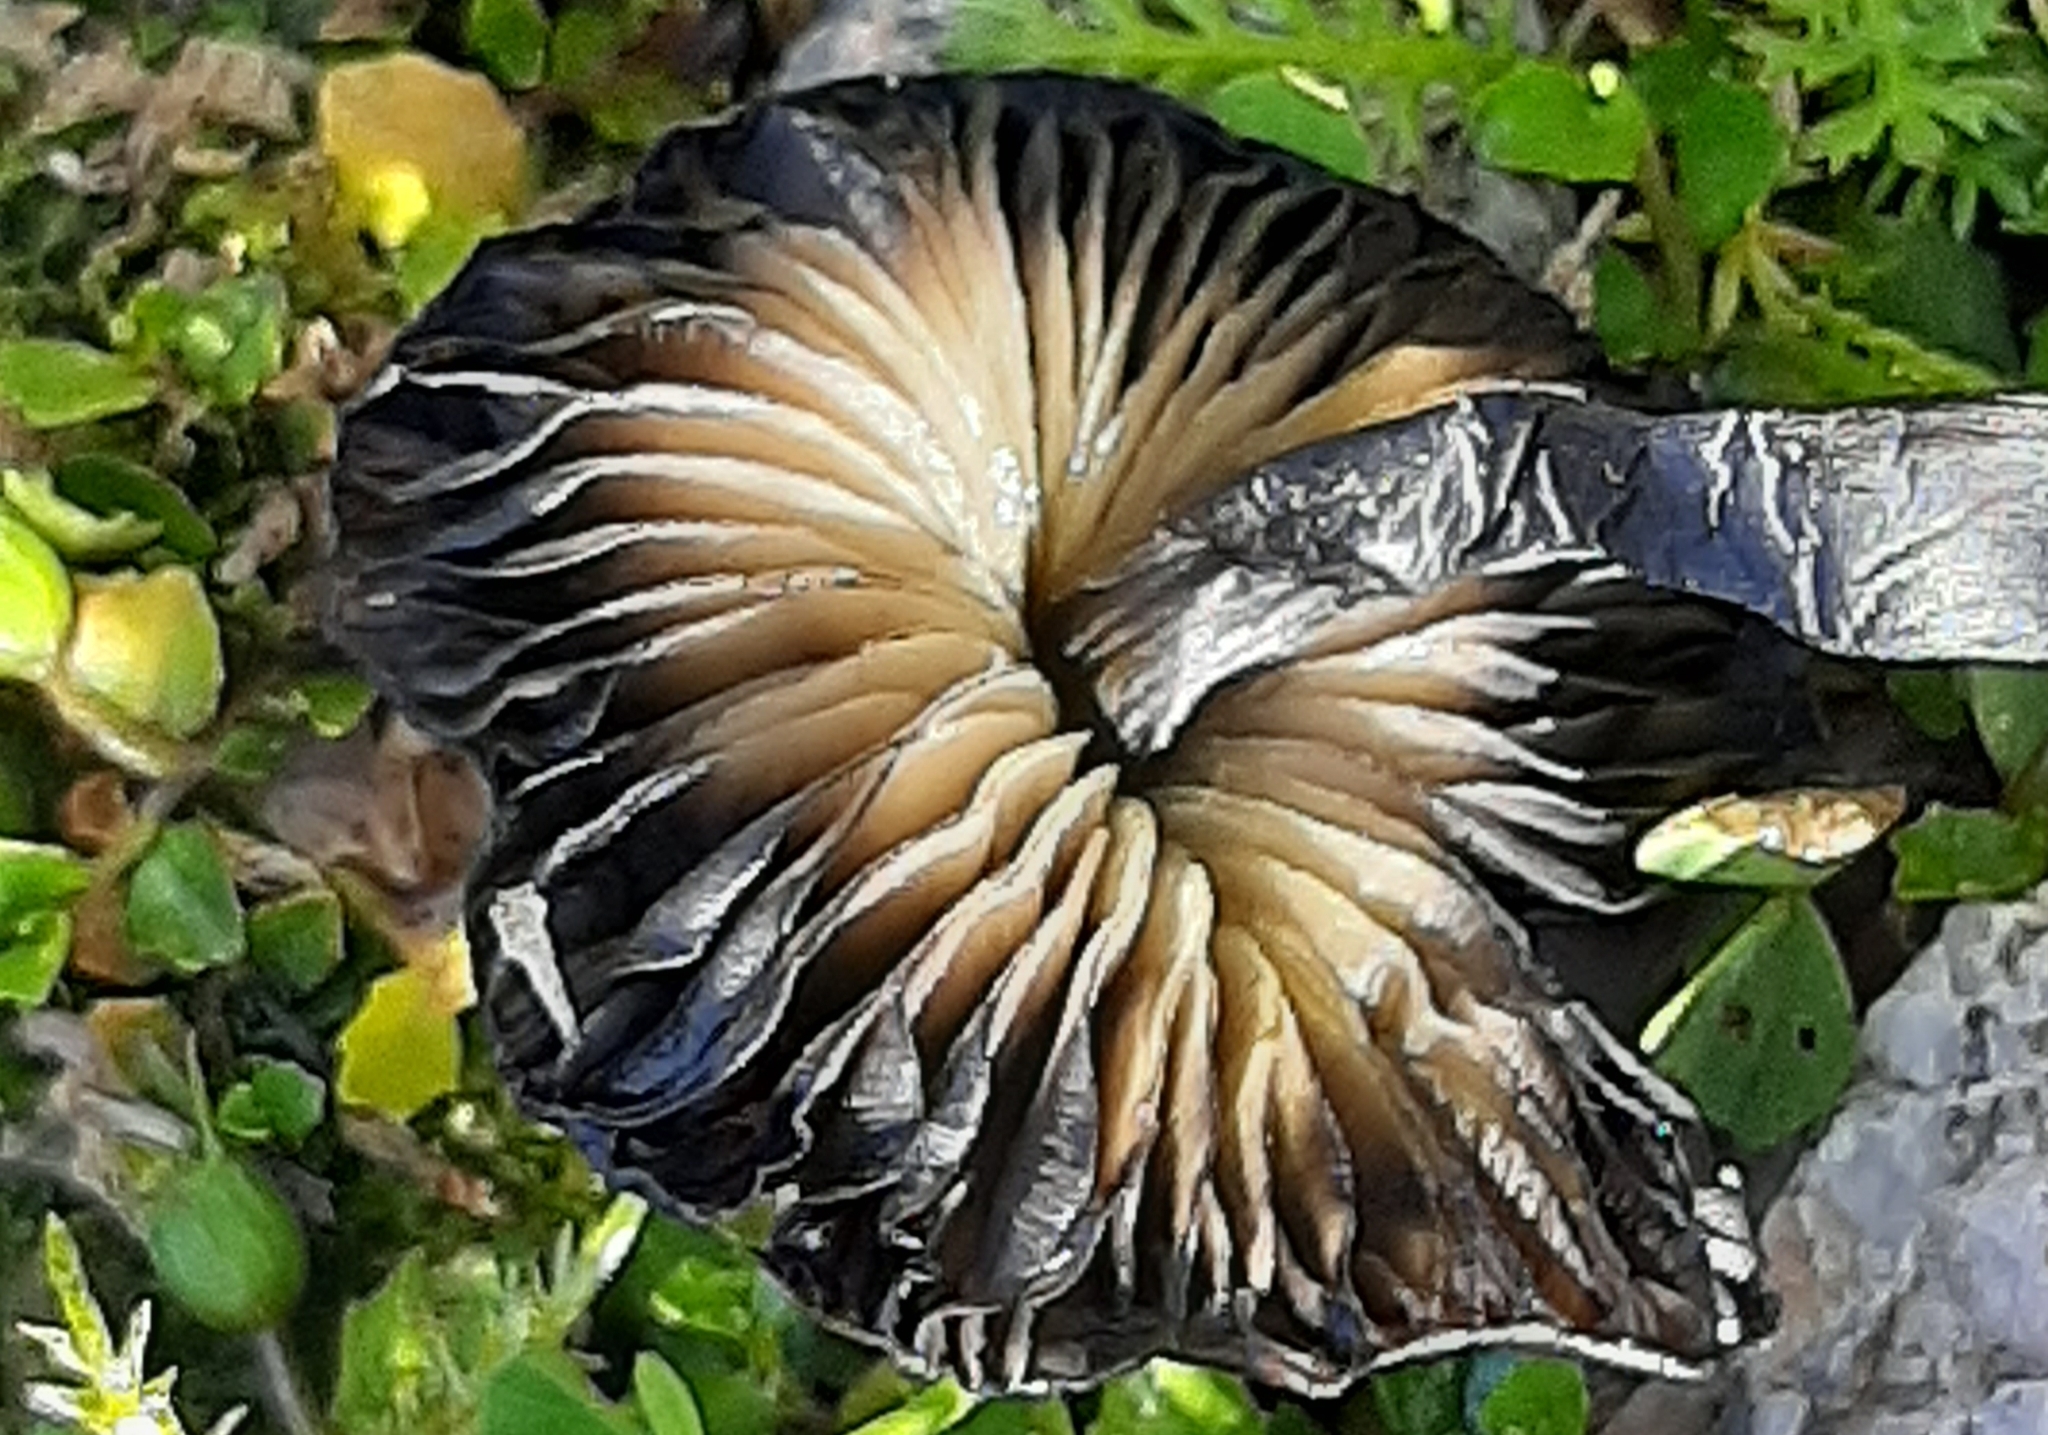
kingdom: Fungi
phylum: Basidiomycota
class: Agaricomycetes
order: Agaricales
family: Hygrophoraceae
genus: Hygrocybe
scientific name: Hygrocybe astatogala
